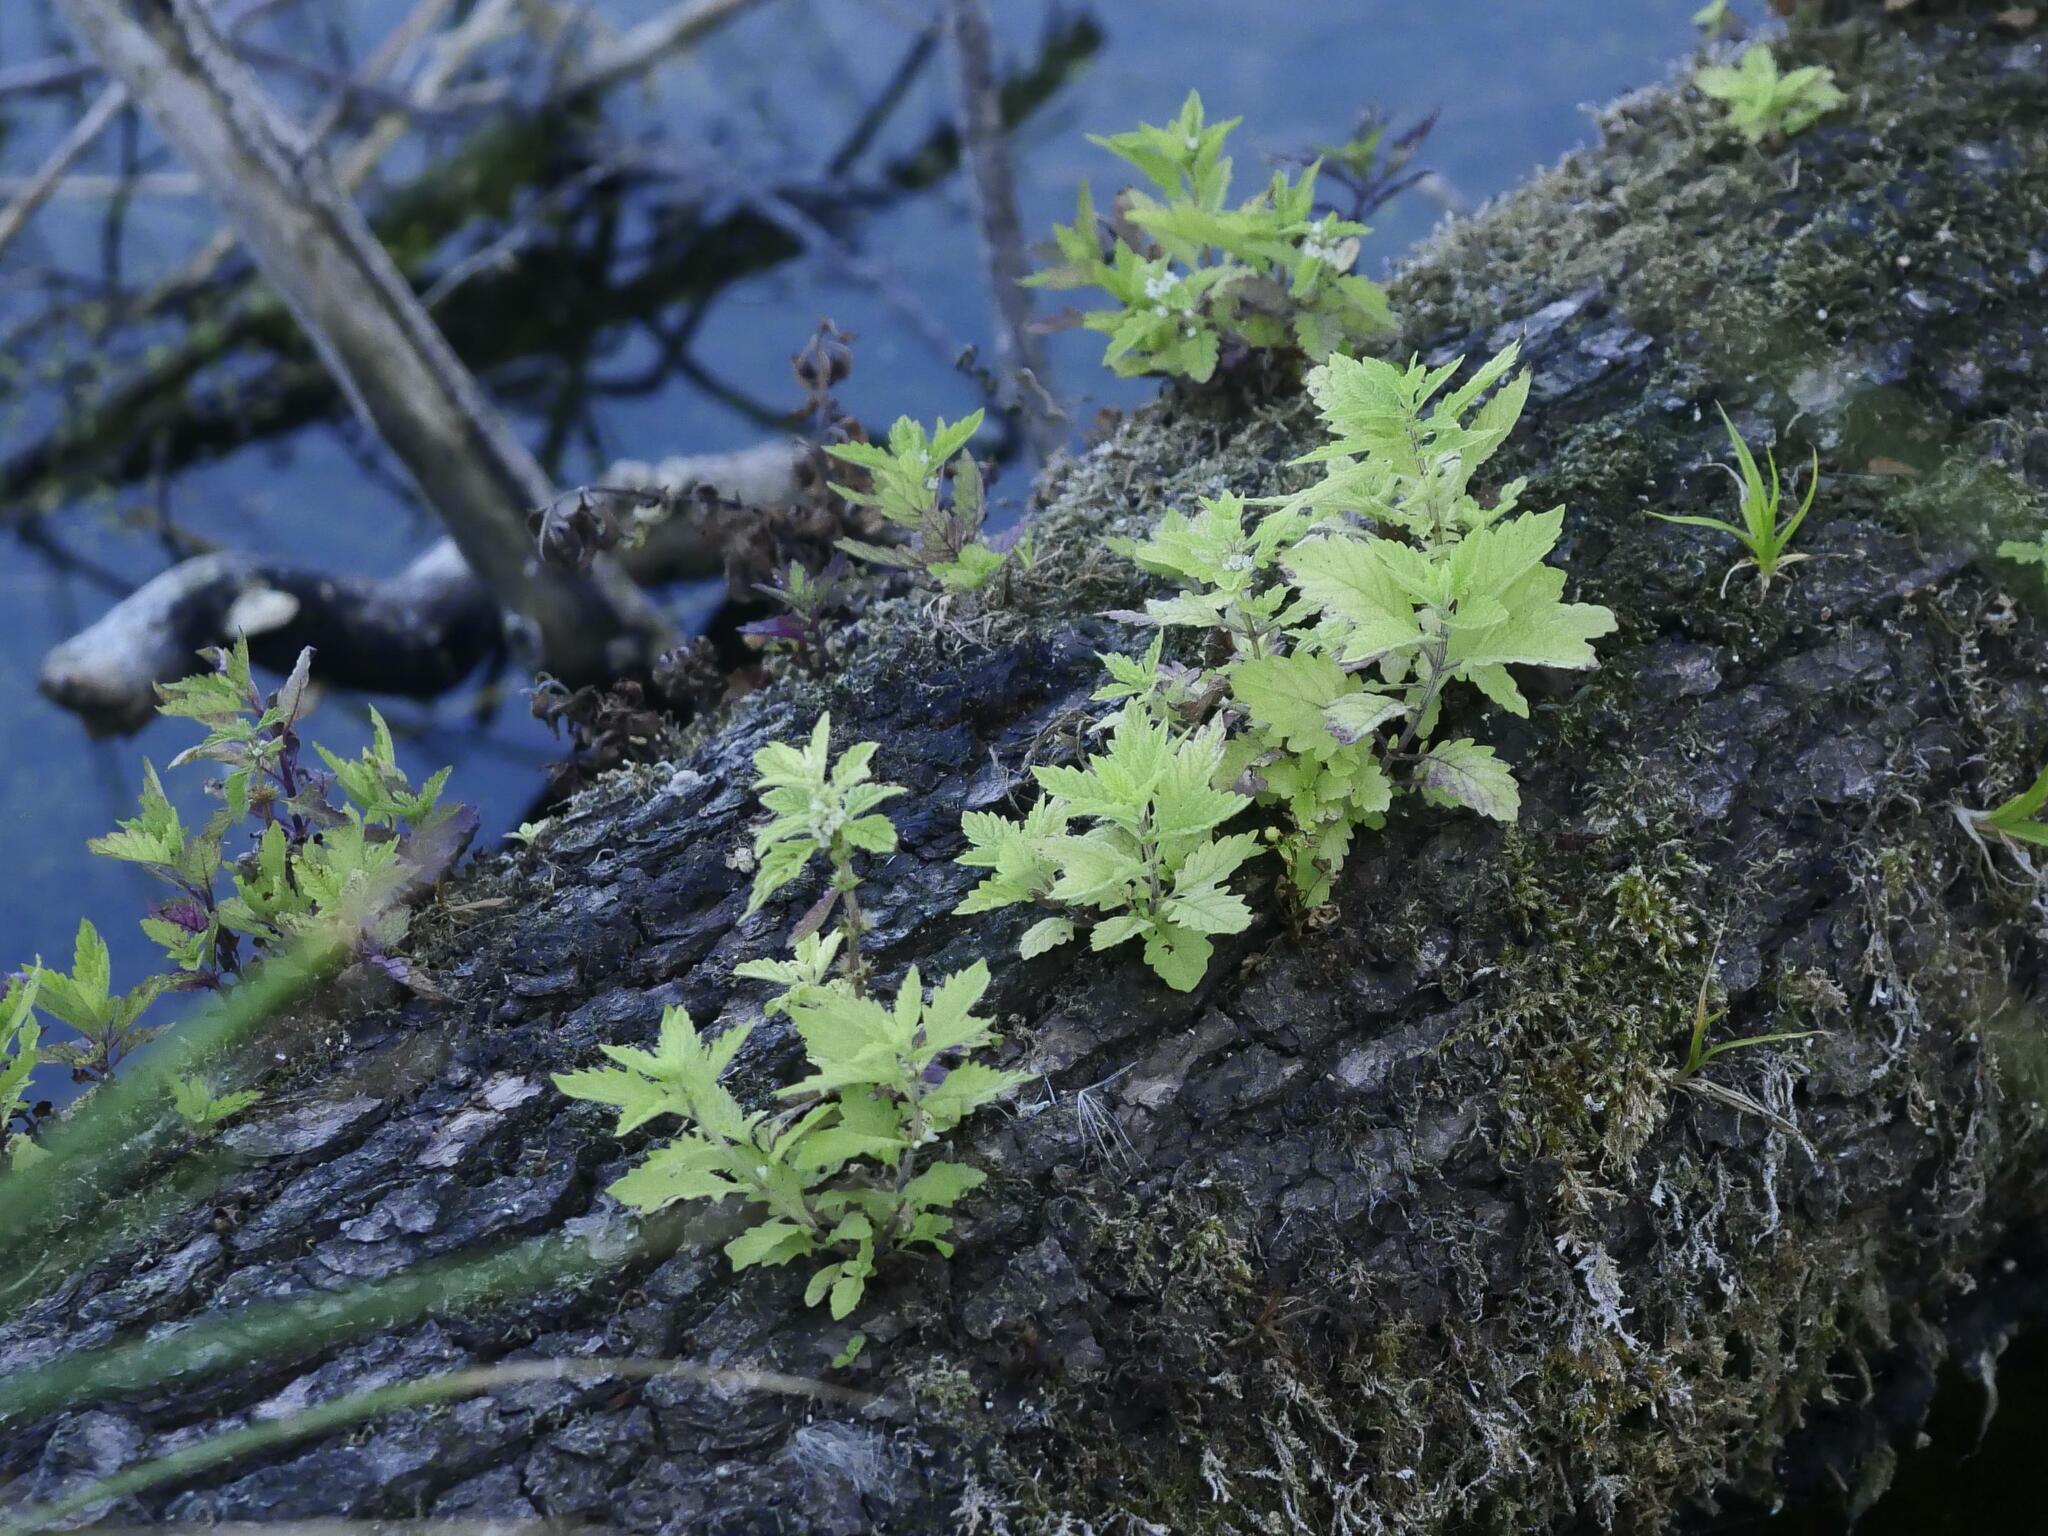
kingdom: Plantae
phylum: Tracheophyta
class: Magnoliopsida
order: Lamiales
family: Lamiaceae
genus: Lycopus
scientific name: Lycopus europaeus
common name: European bugleweed
